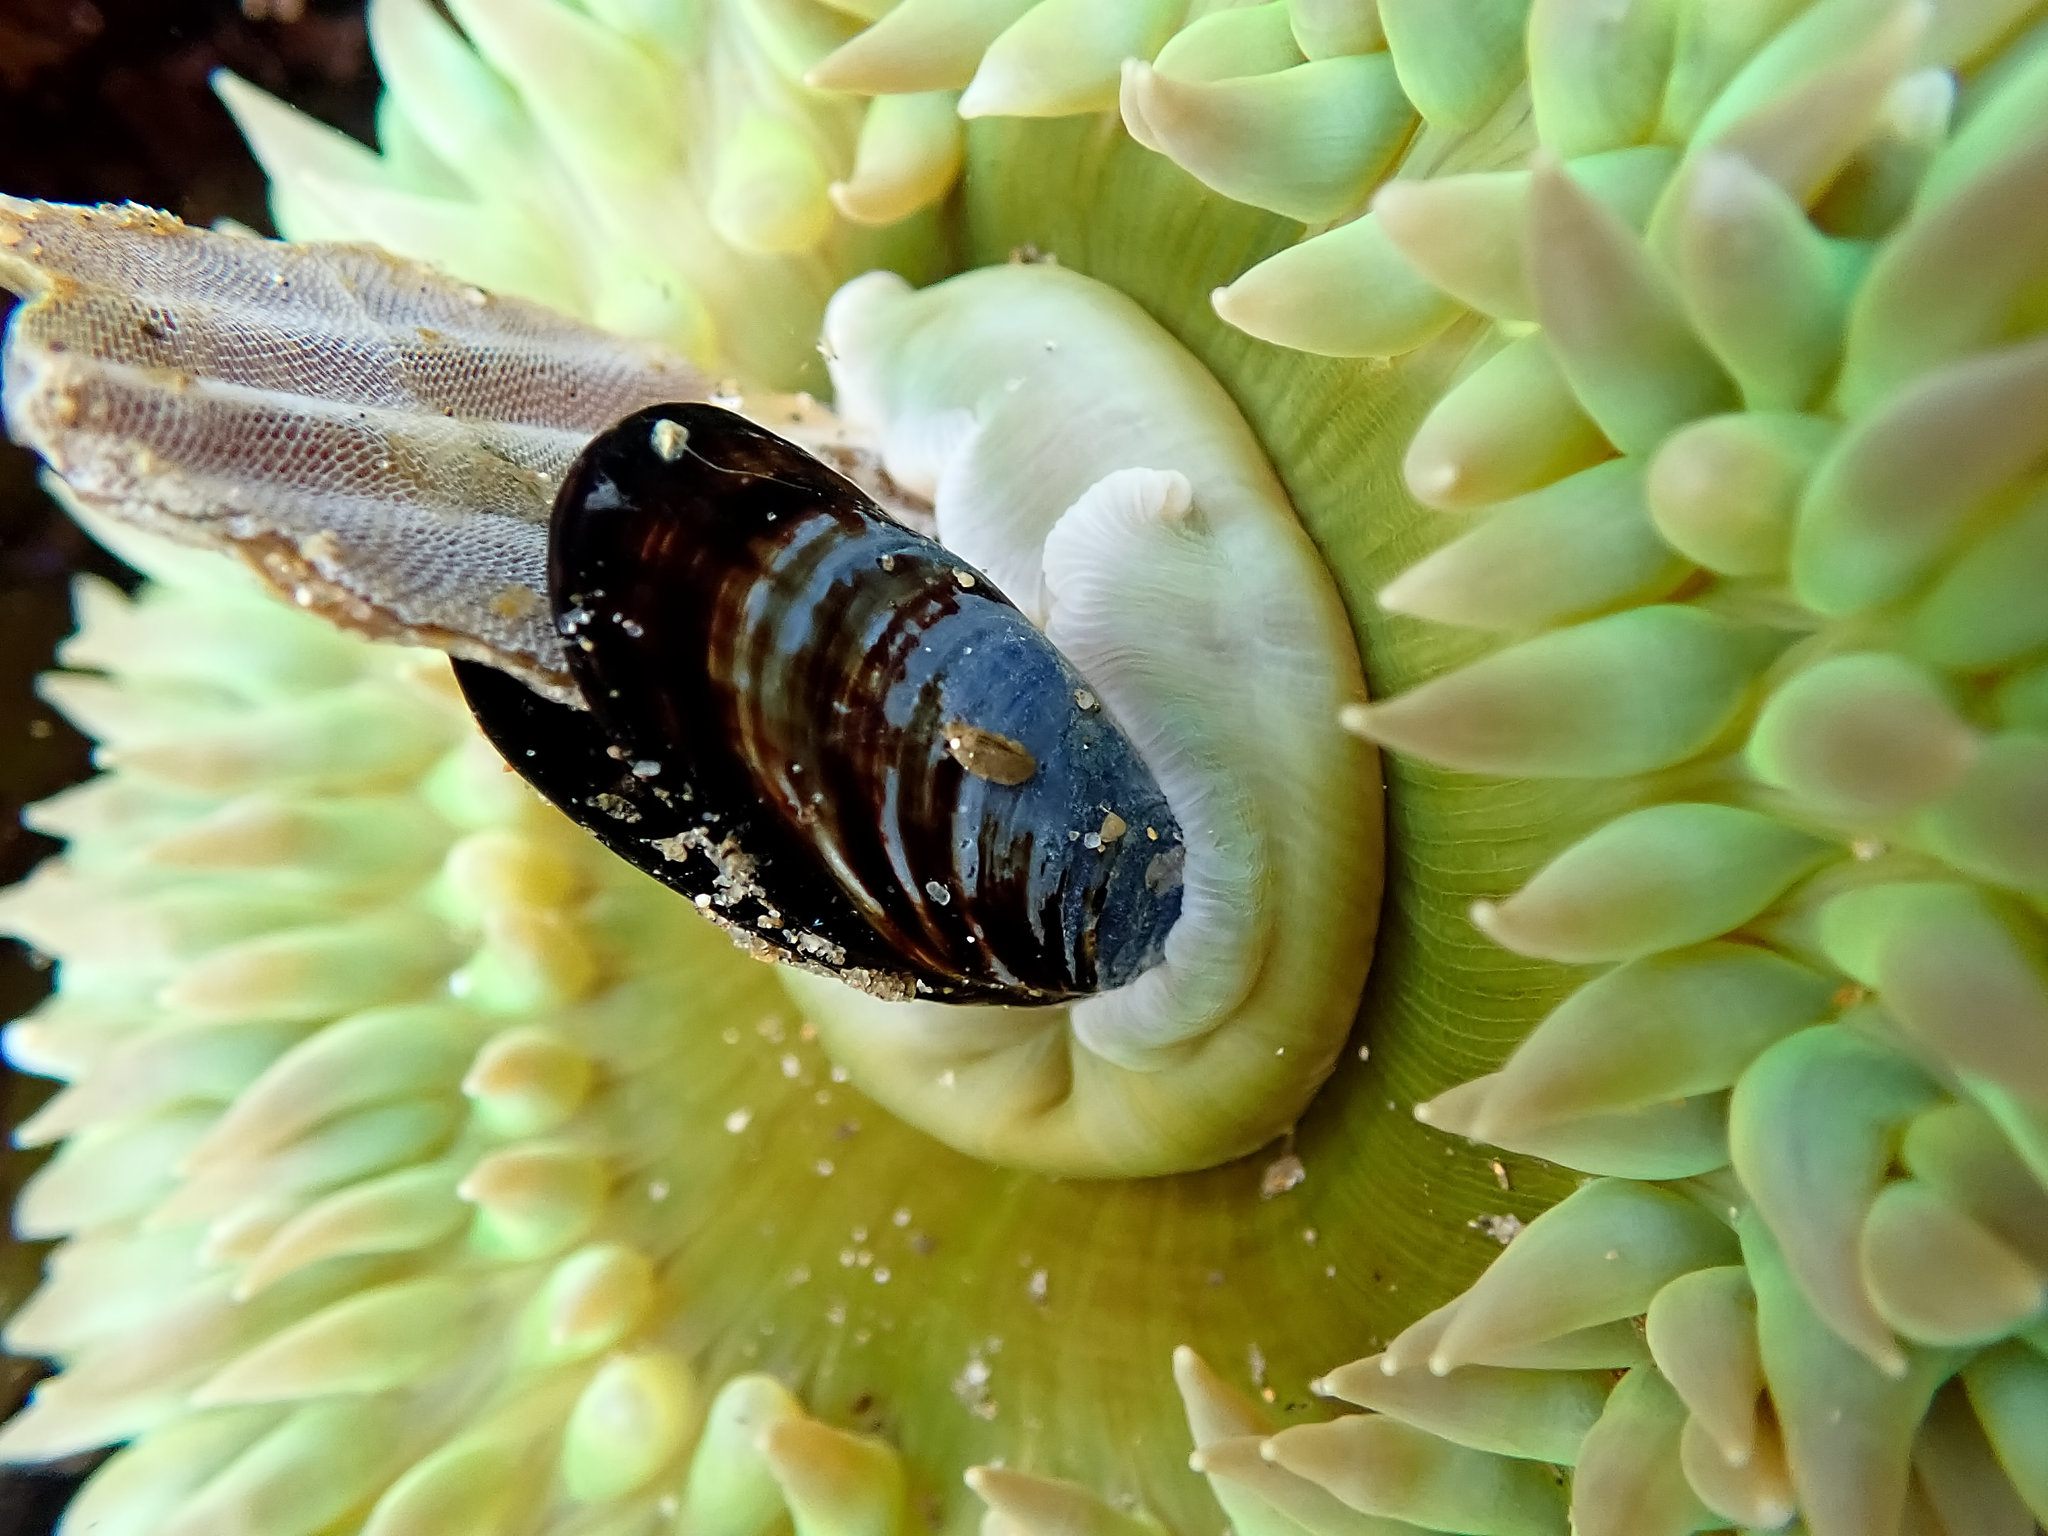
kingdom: Animalia
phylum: Bryozoa
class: Gymnolaemata
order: Cheilostomatida
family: Membraniporidae
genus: Membranipora
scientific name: Membranipora membranacea
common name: Sea mat
